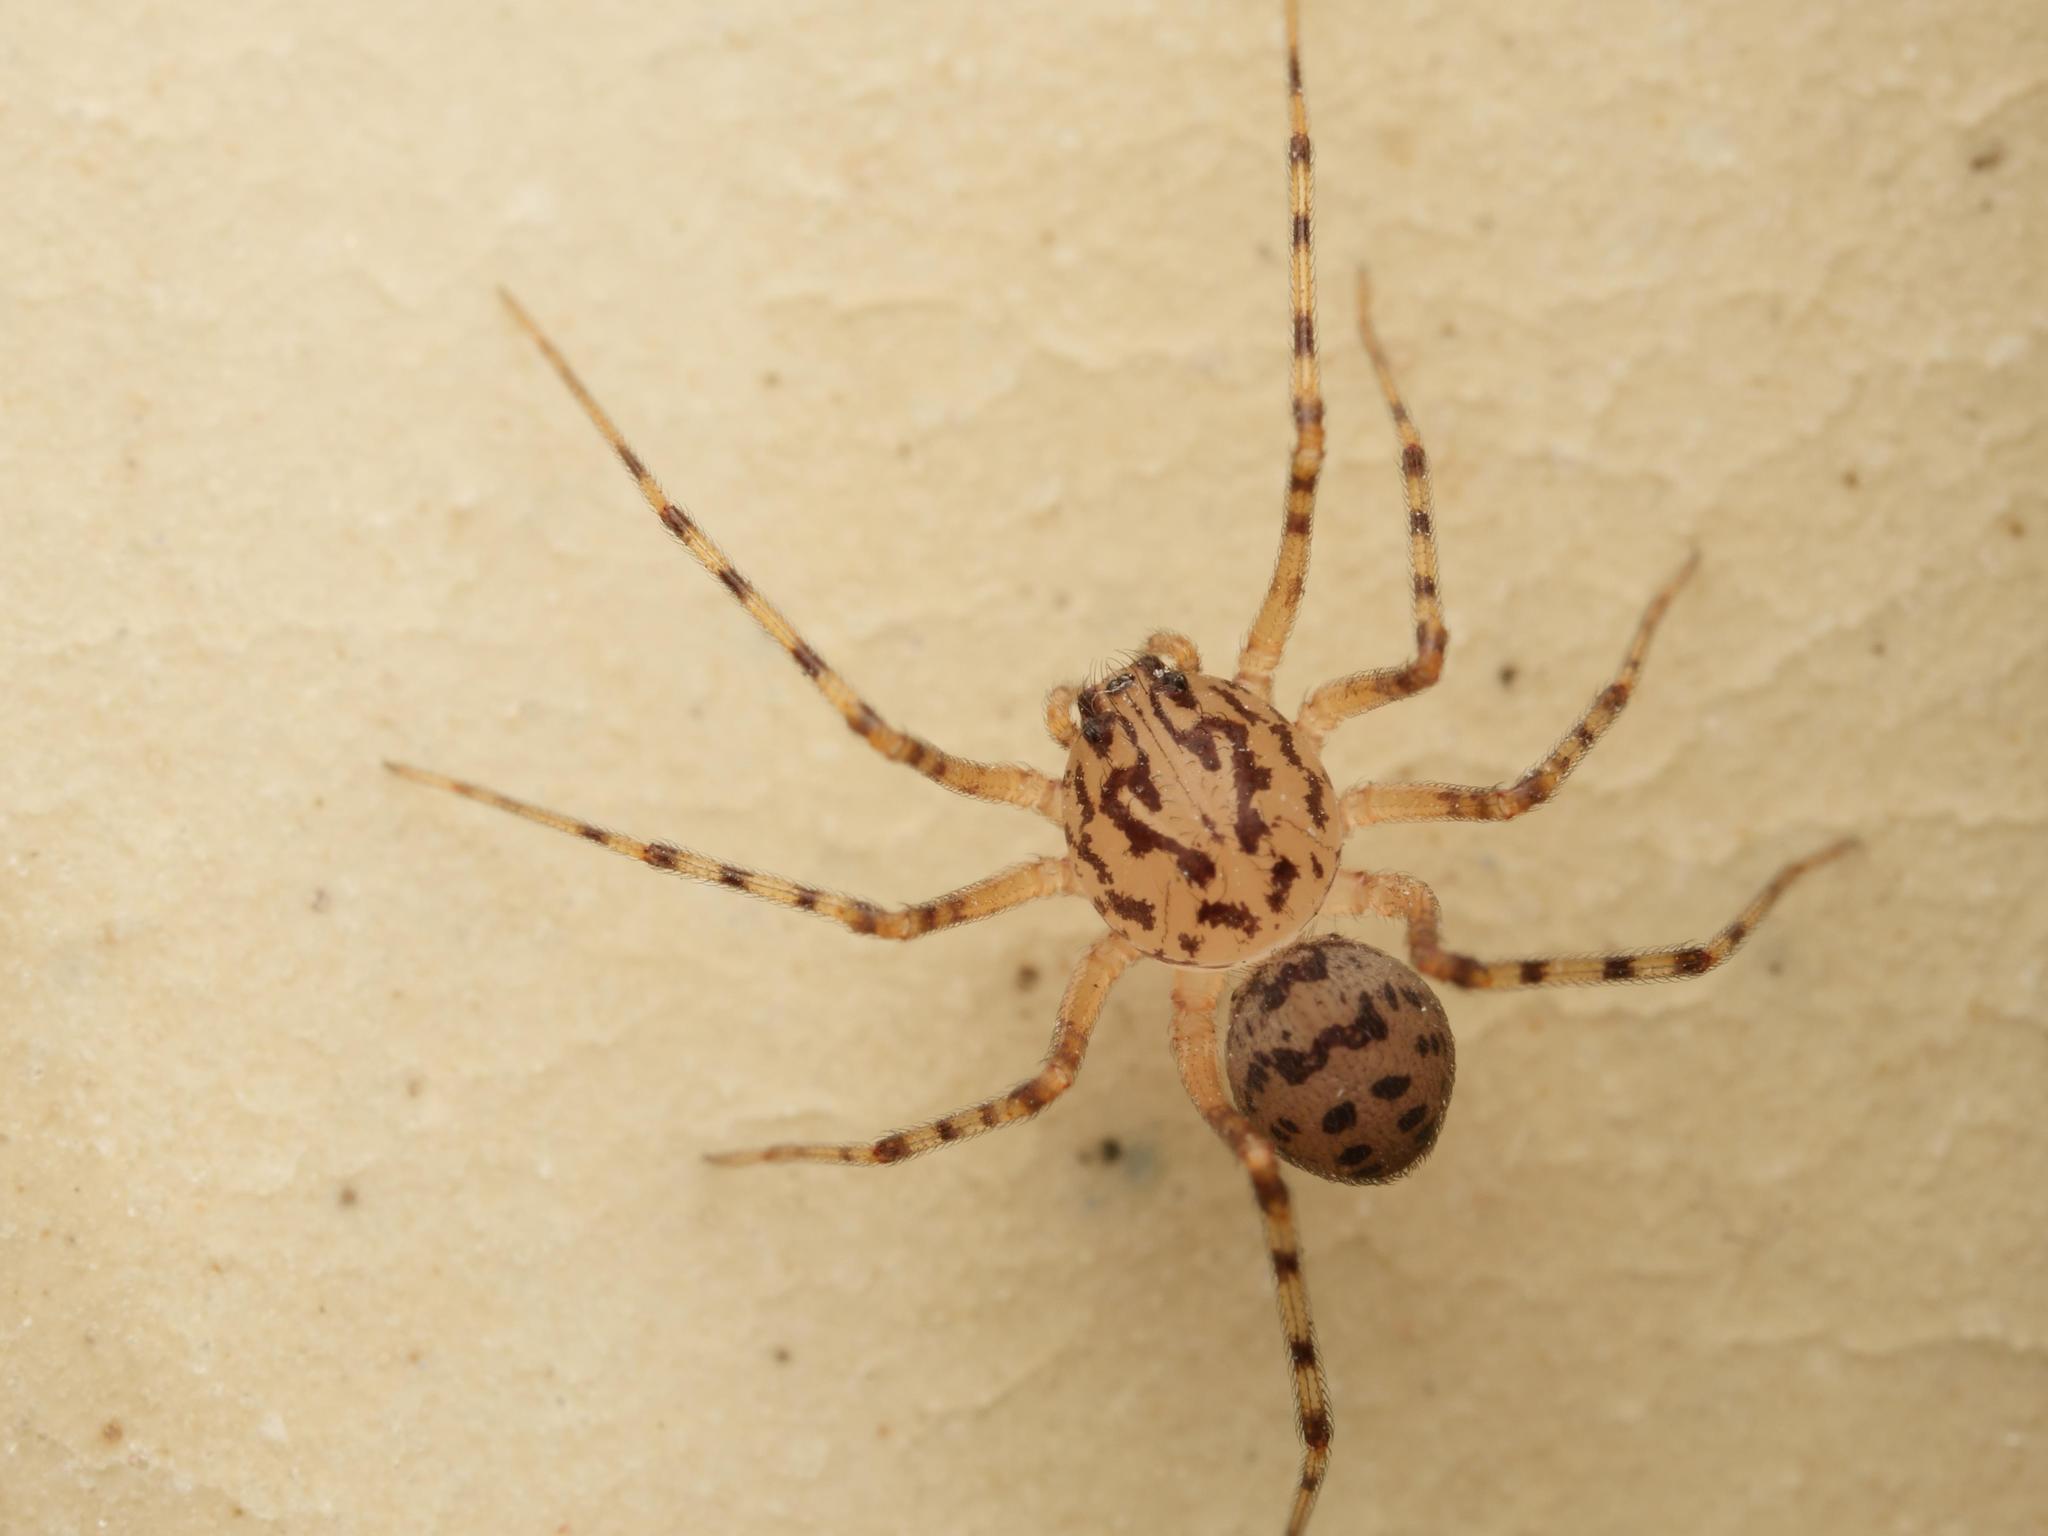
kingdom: Animalia
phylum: Arthropoda
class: Arachnida
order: Araneae
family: Scytodidae
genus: Scytodes
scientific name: Scytodes thoracica
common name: Spitting spider
